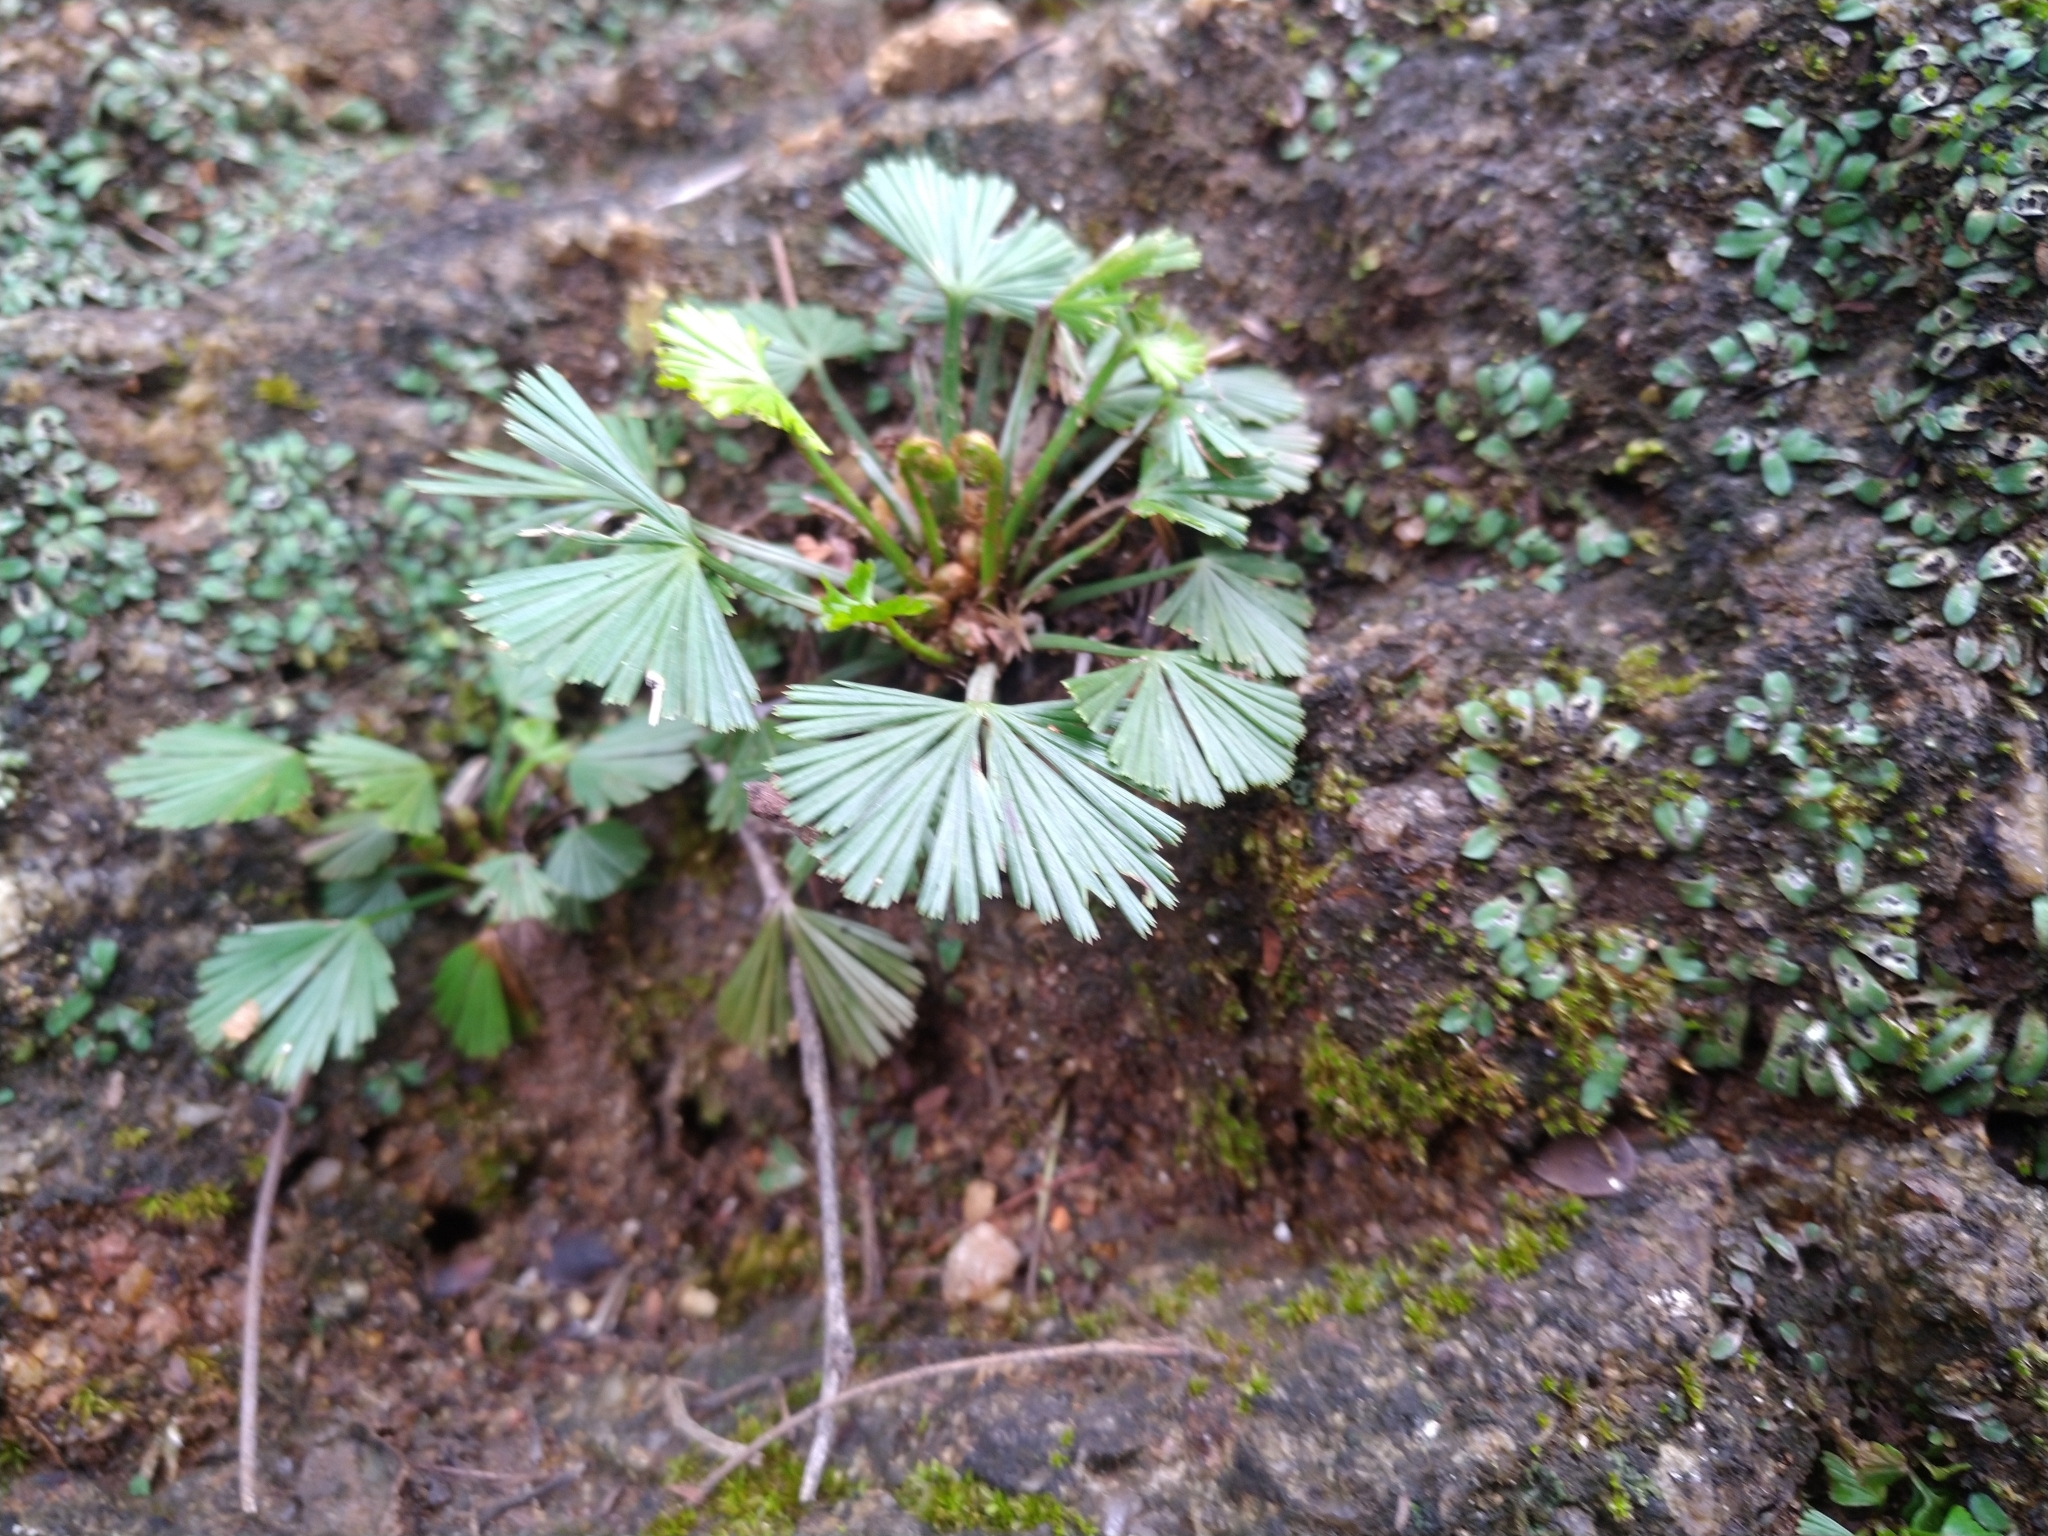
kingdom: Plantae
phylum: Tracheophyta
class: Polypodiopsida
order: Polypodiales
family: Pteridaceae
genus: Actiniopteris
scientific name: Actiniopteris radiata
